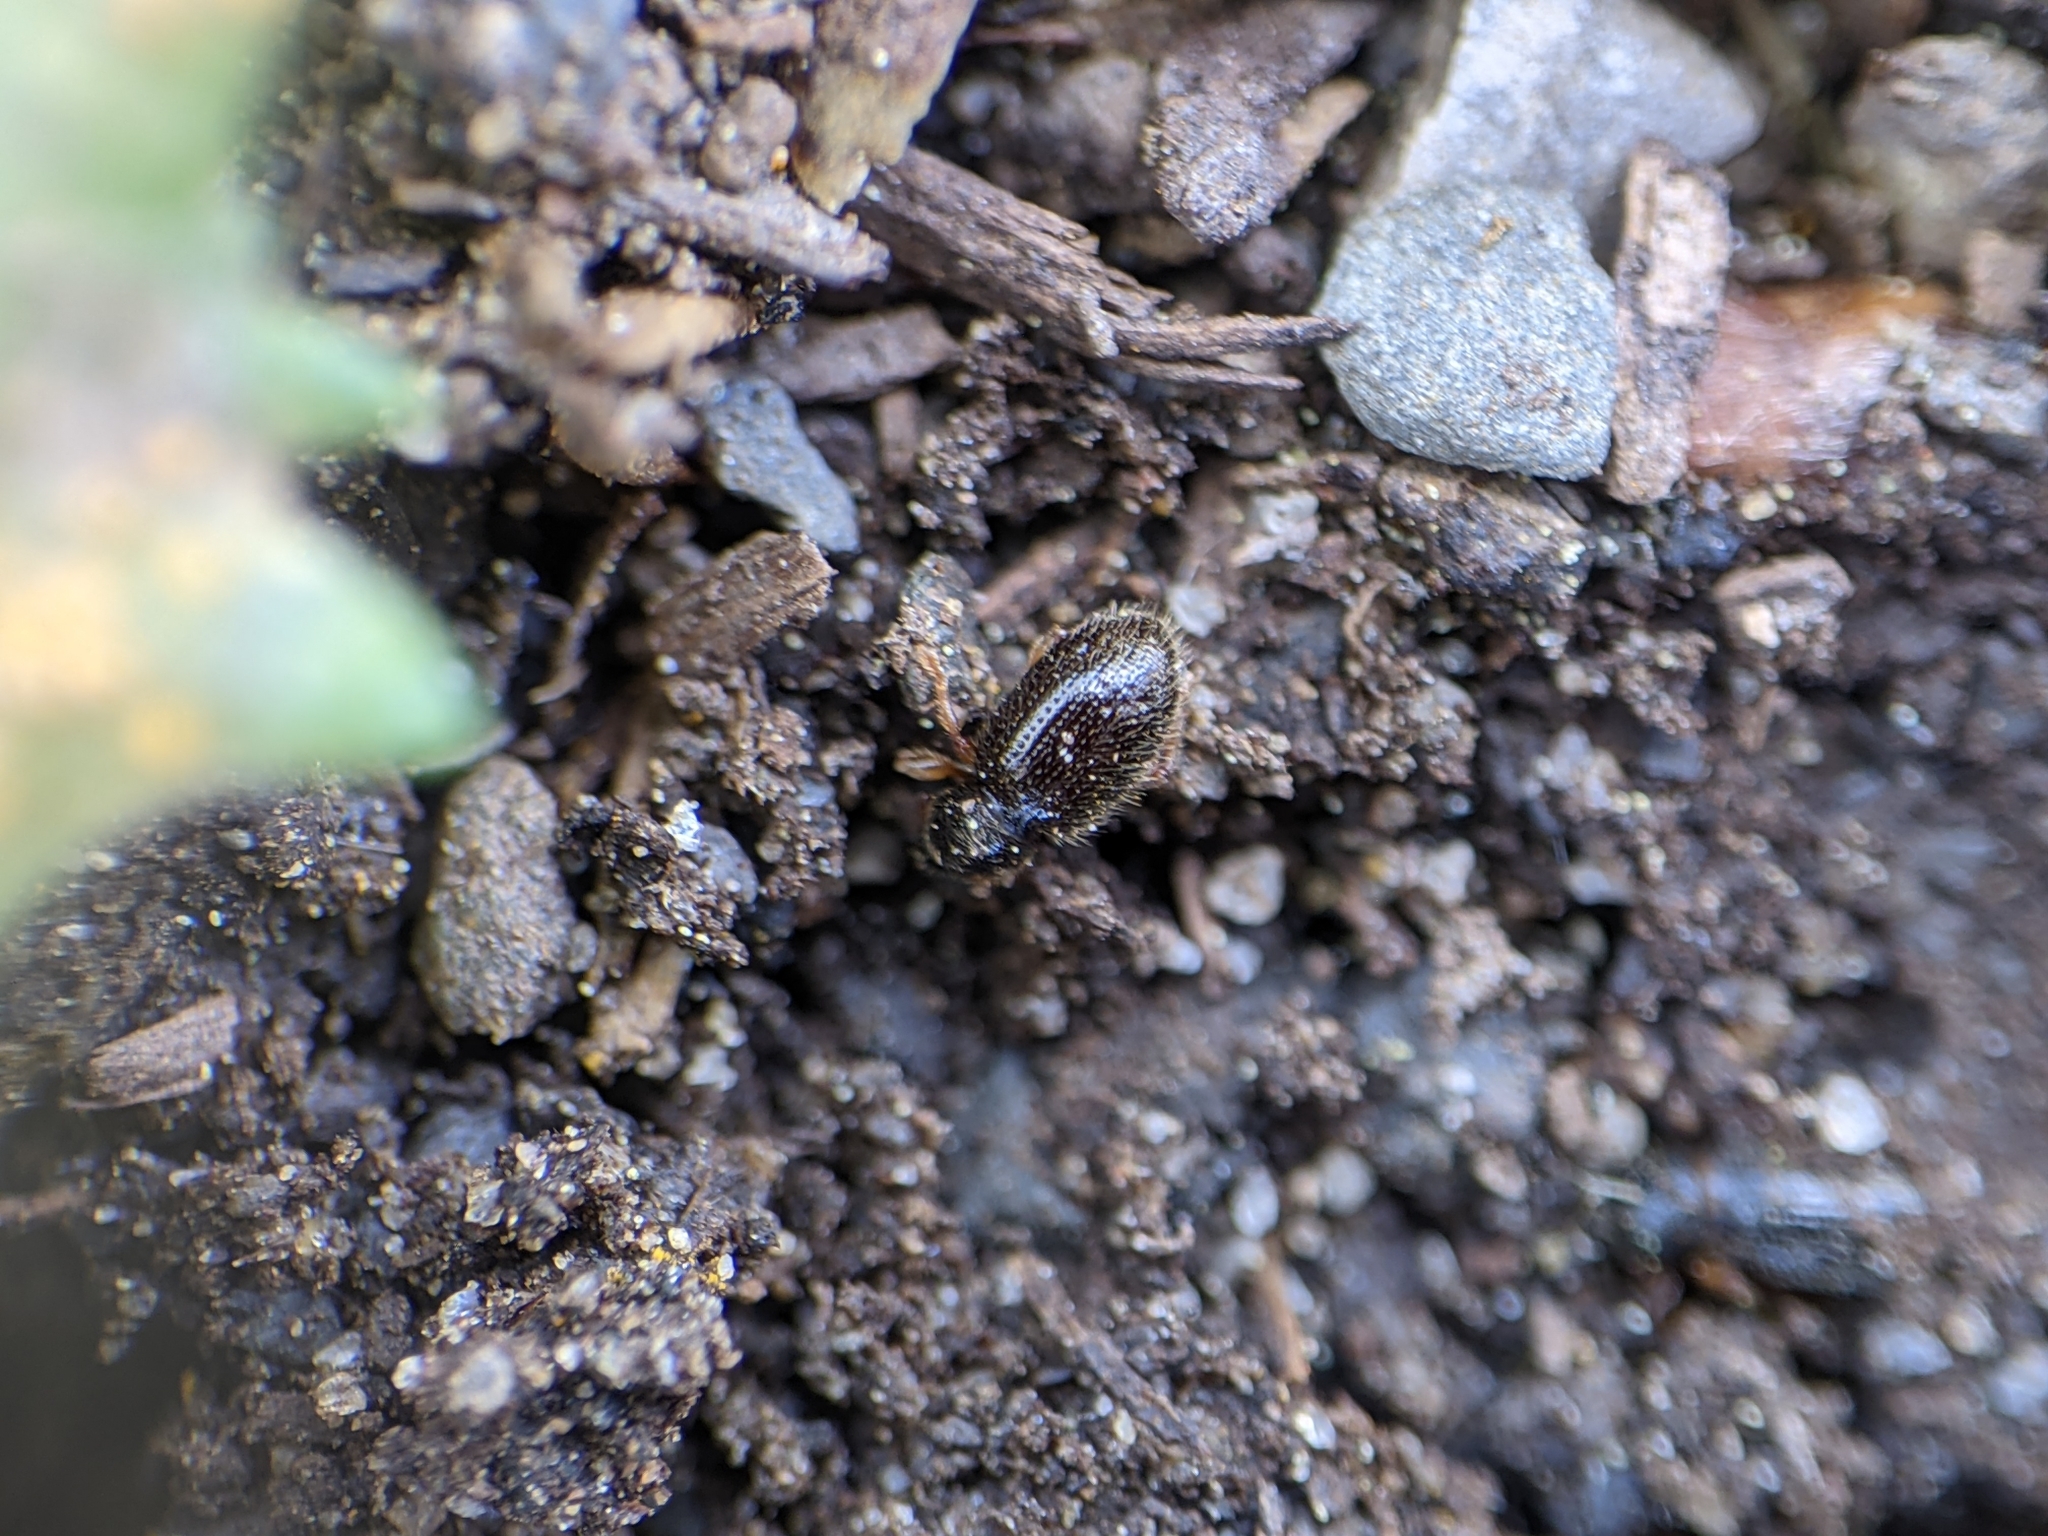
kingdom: Animalia
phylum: Arthropoda
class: Insecta
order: Coleoptera
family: Curculionidae
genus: Exomias
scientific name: Exomias pellucidus
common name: Hairy spider weevil
